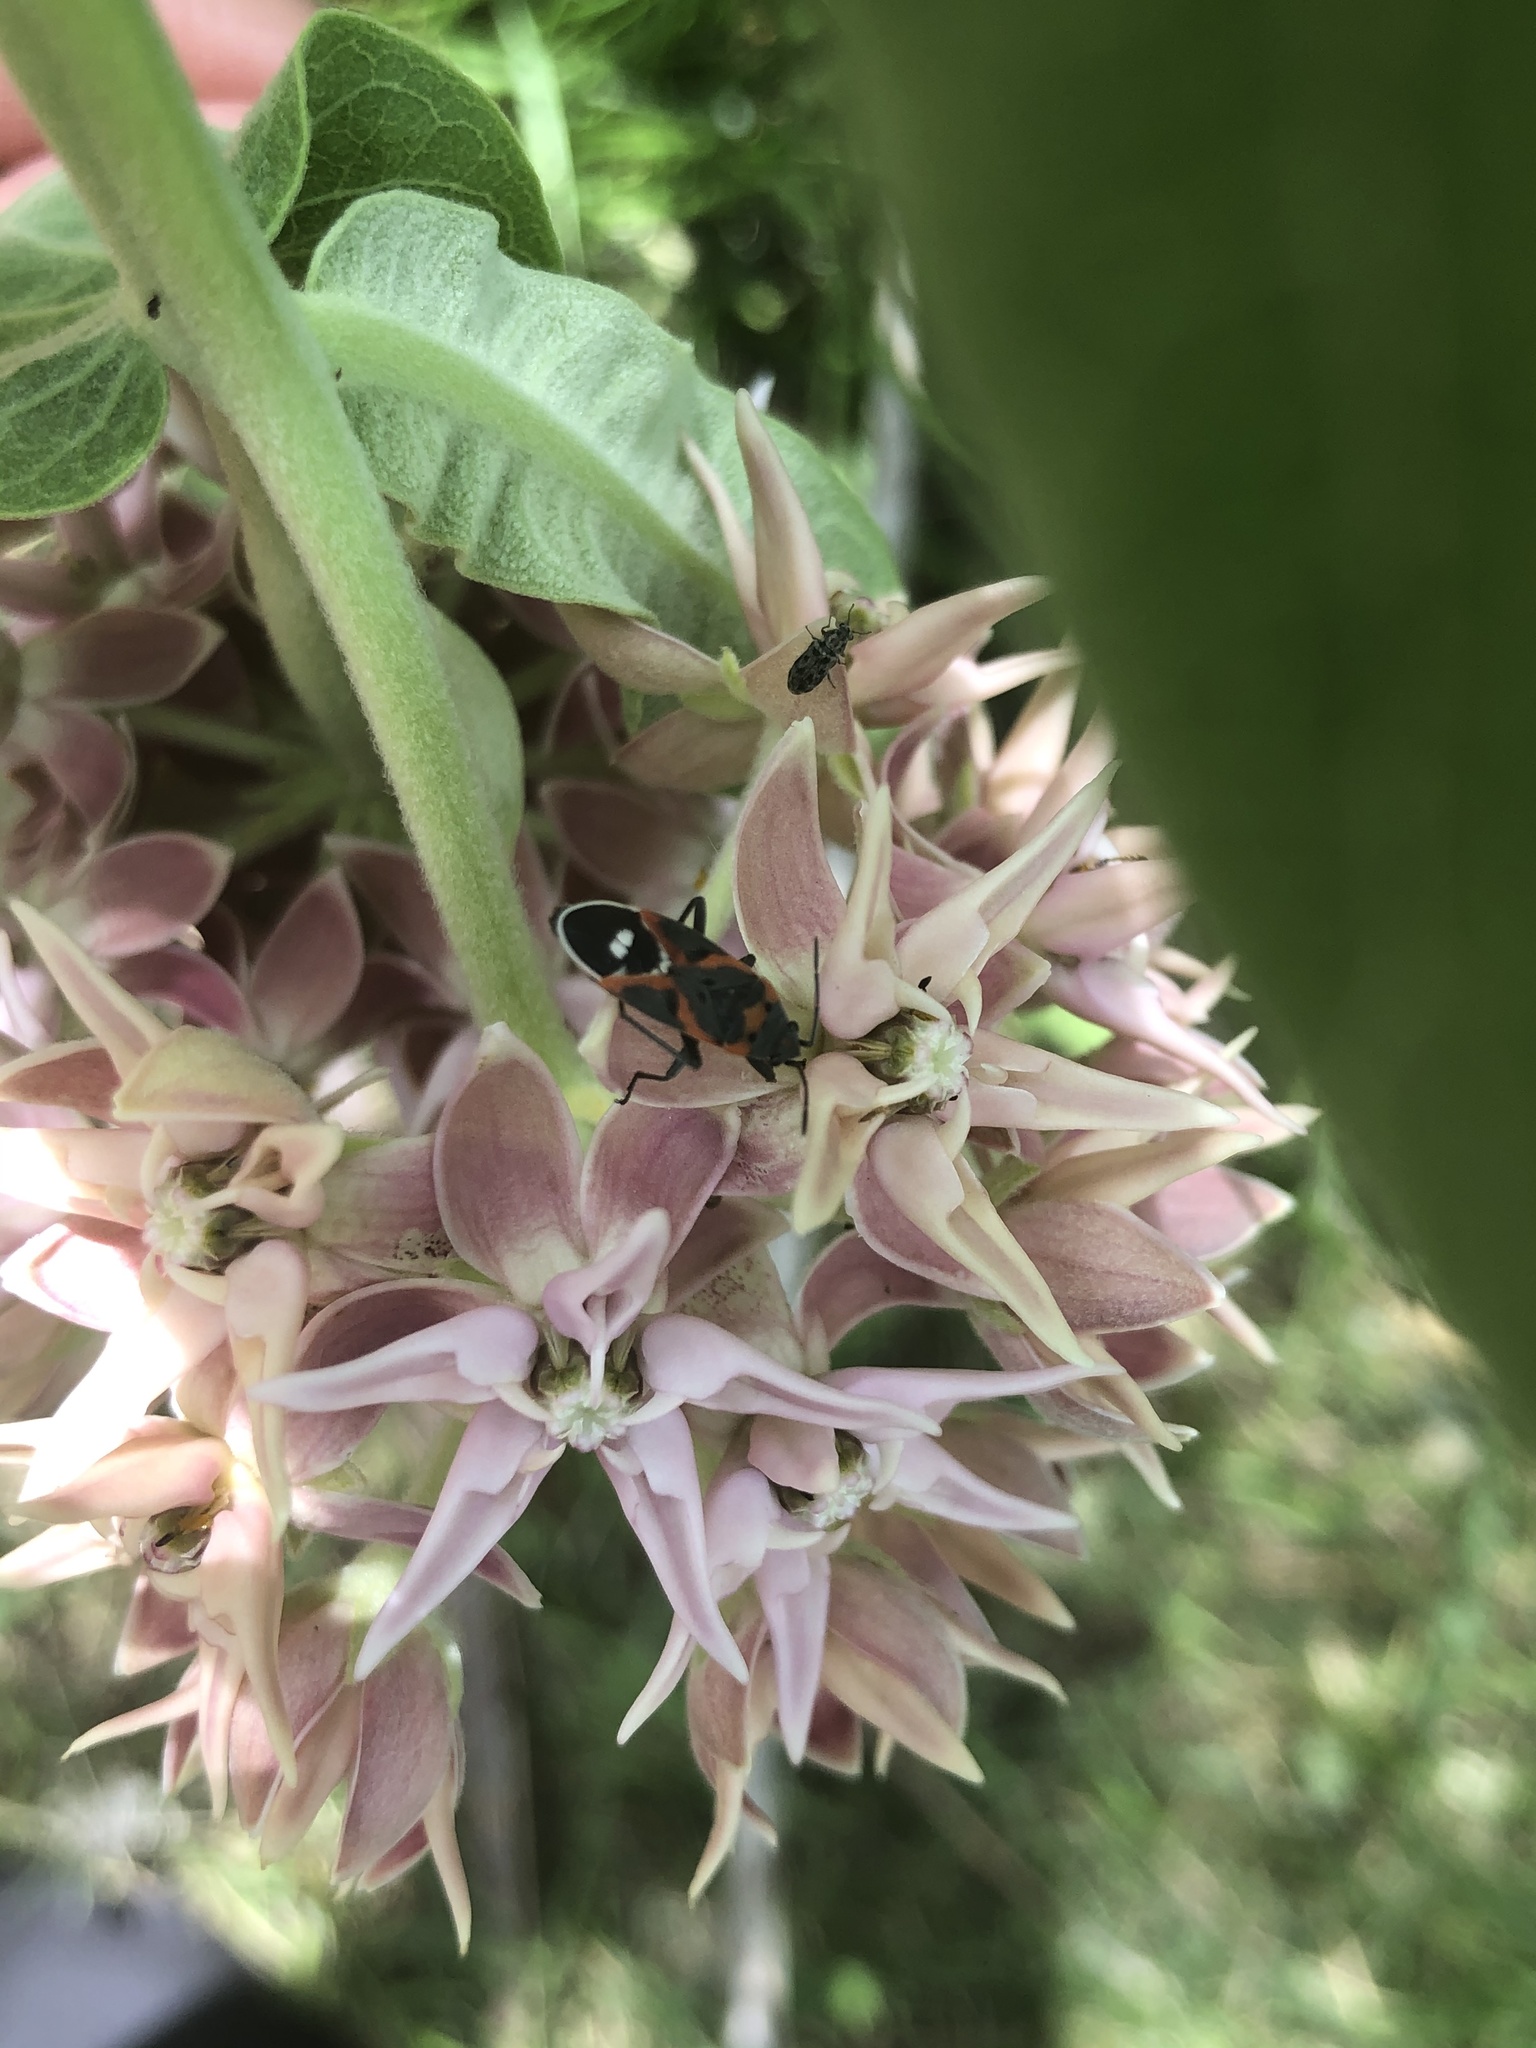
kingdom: Animalia
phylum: Arthropoda
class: Insecta
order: Hemiptera
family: Lygaeidae
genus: Lygaeus
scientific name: Lygaeus kalmii
